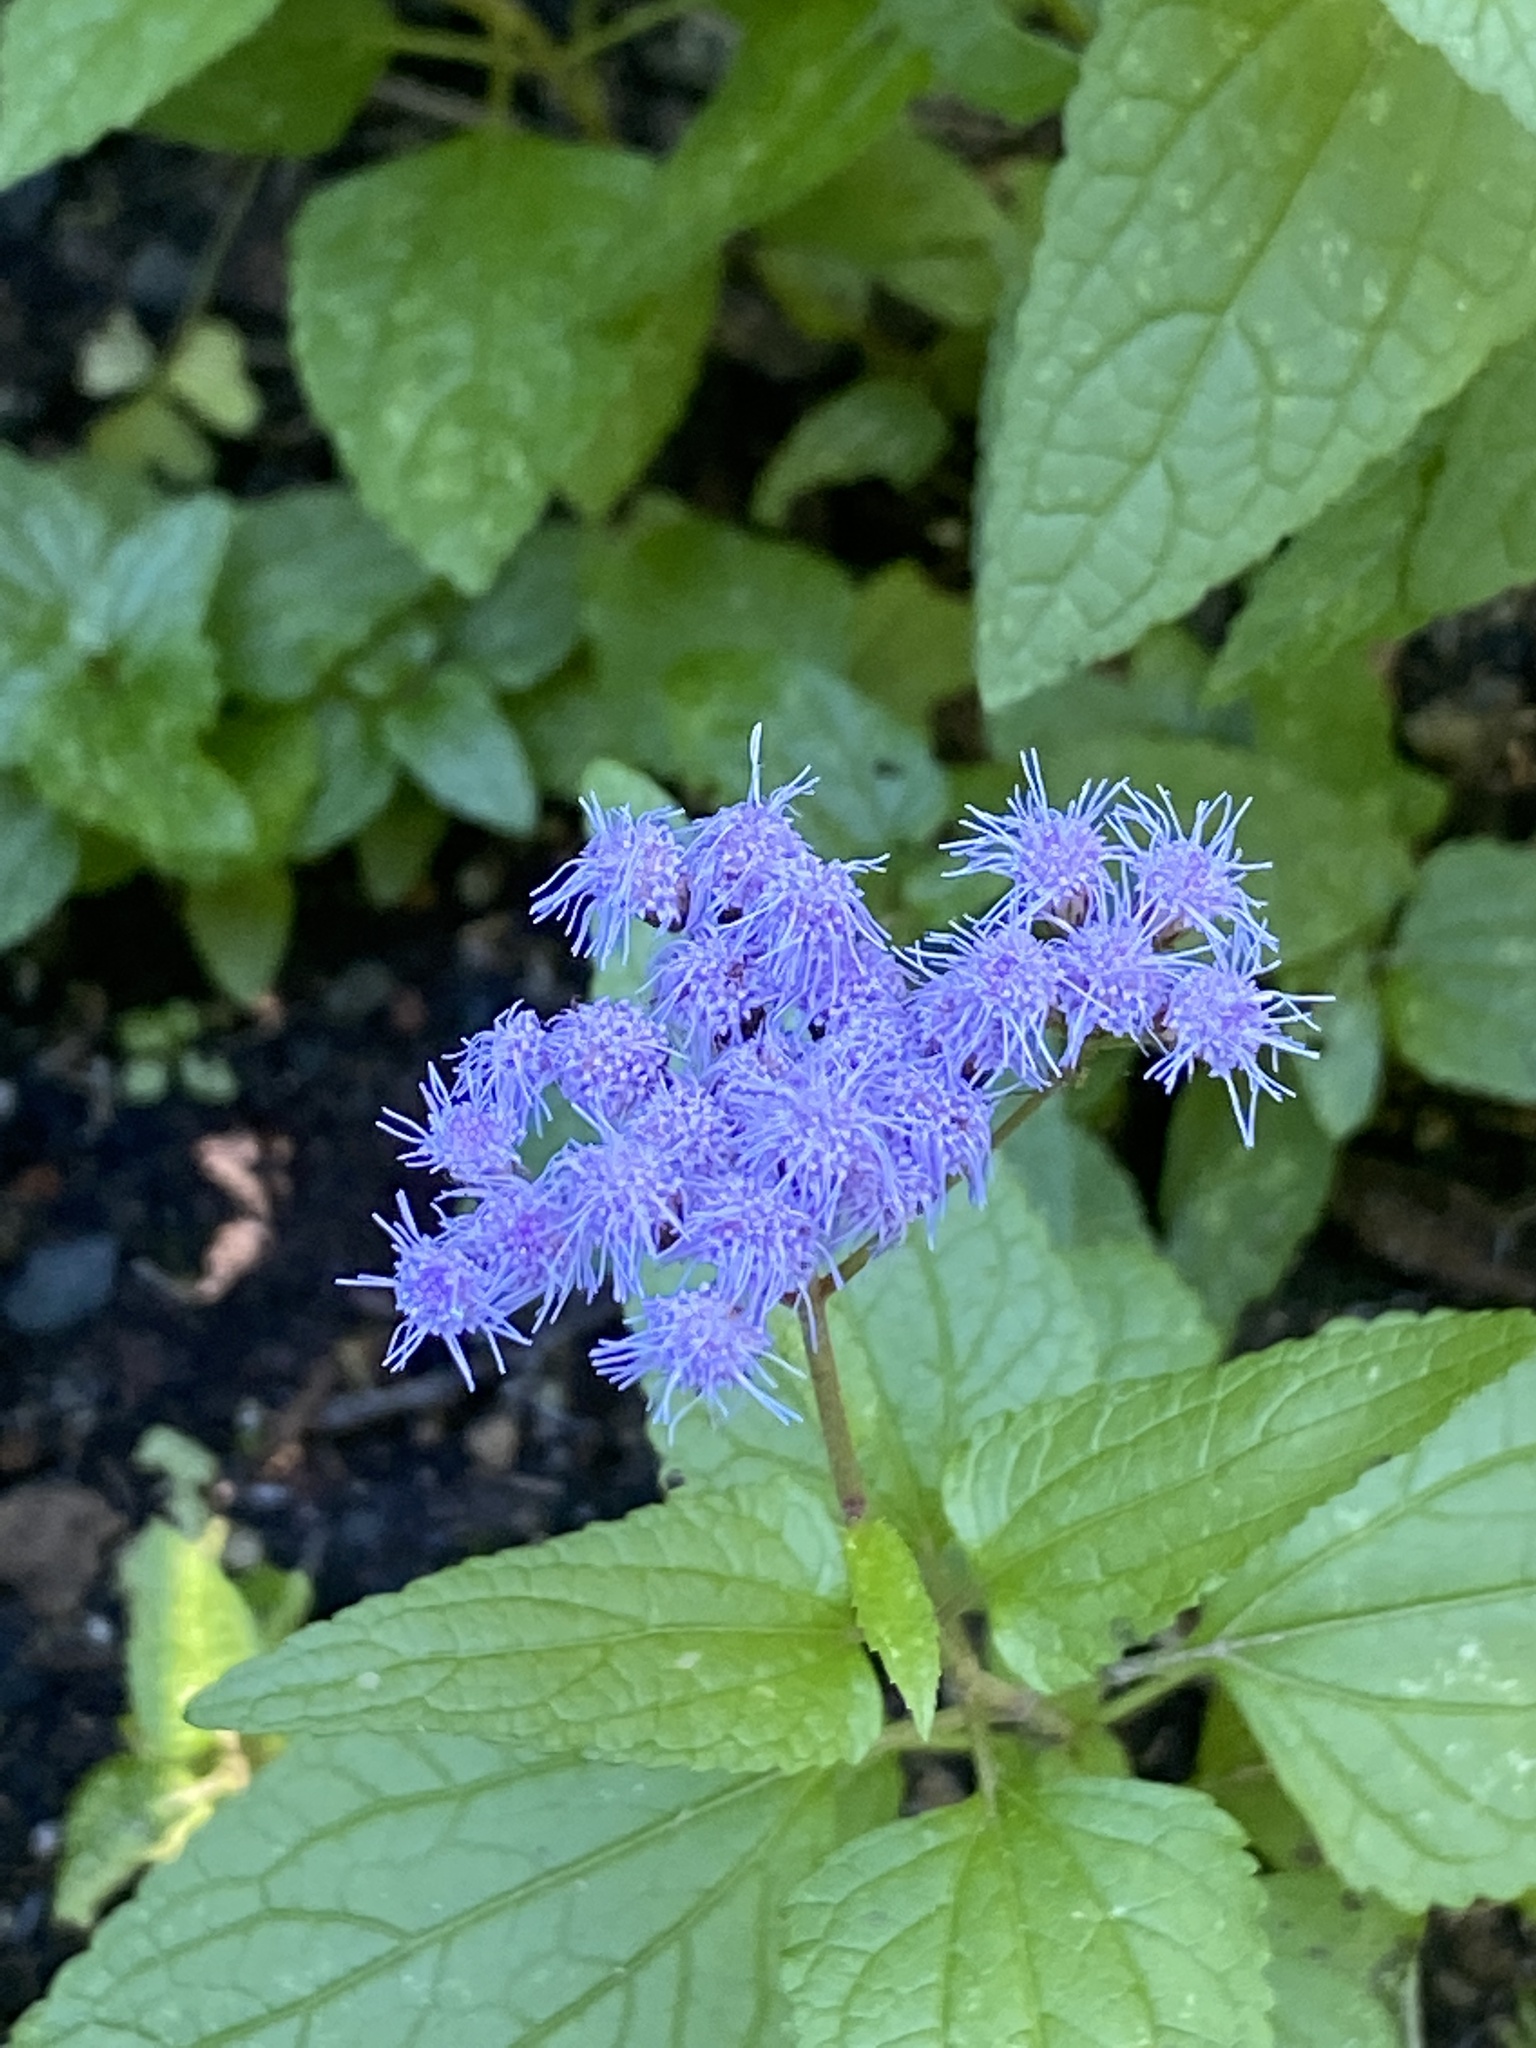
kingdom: Plantae
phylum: Tracheophyta
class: Magnoliopsida
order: Asterales
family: Asteraceae
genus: Conoclinium
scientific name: Conoclinium coelestinum
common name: Blue mistflower
